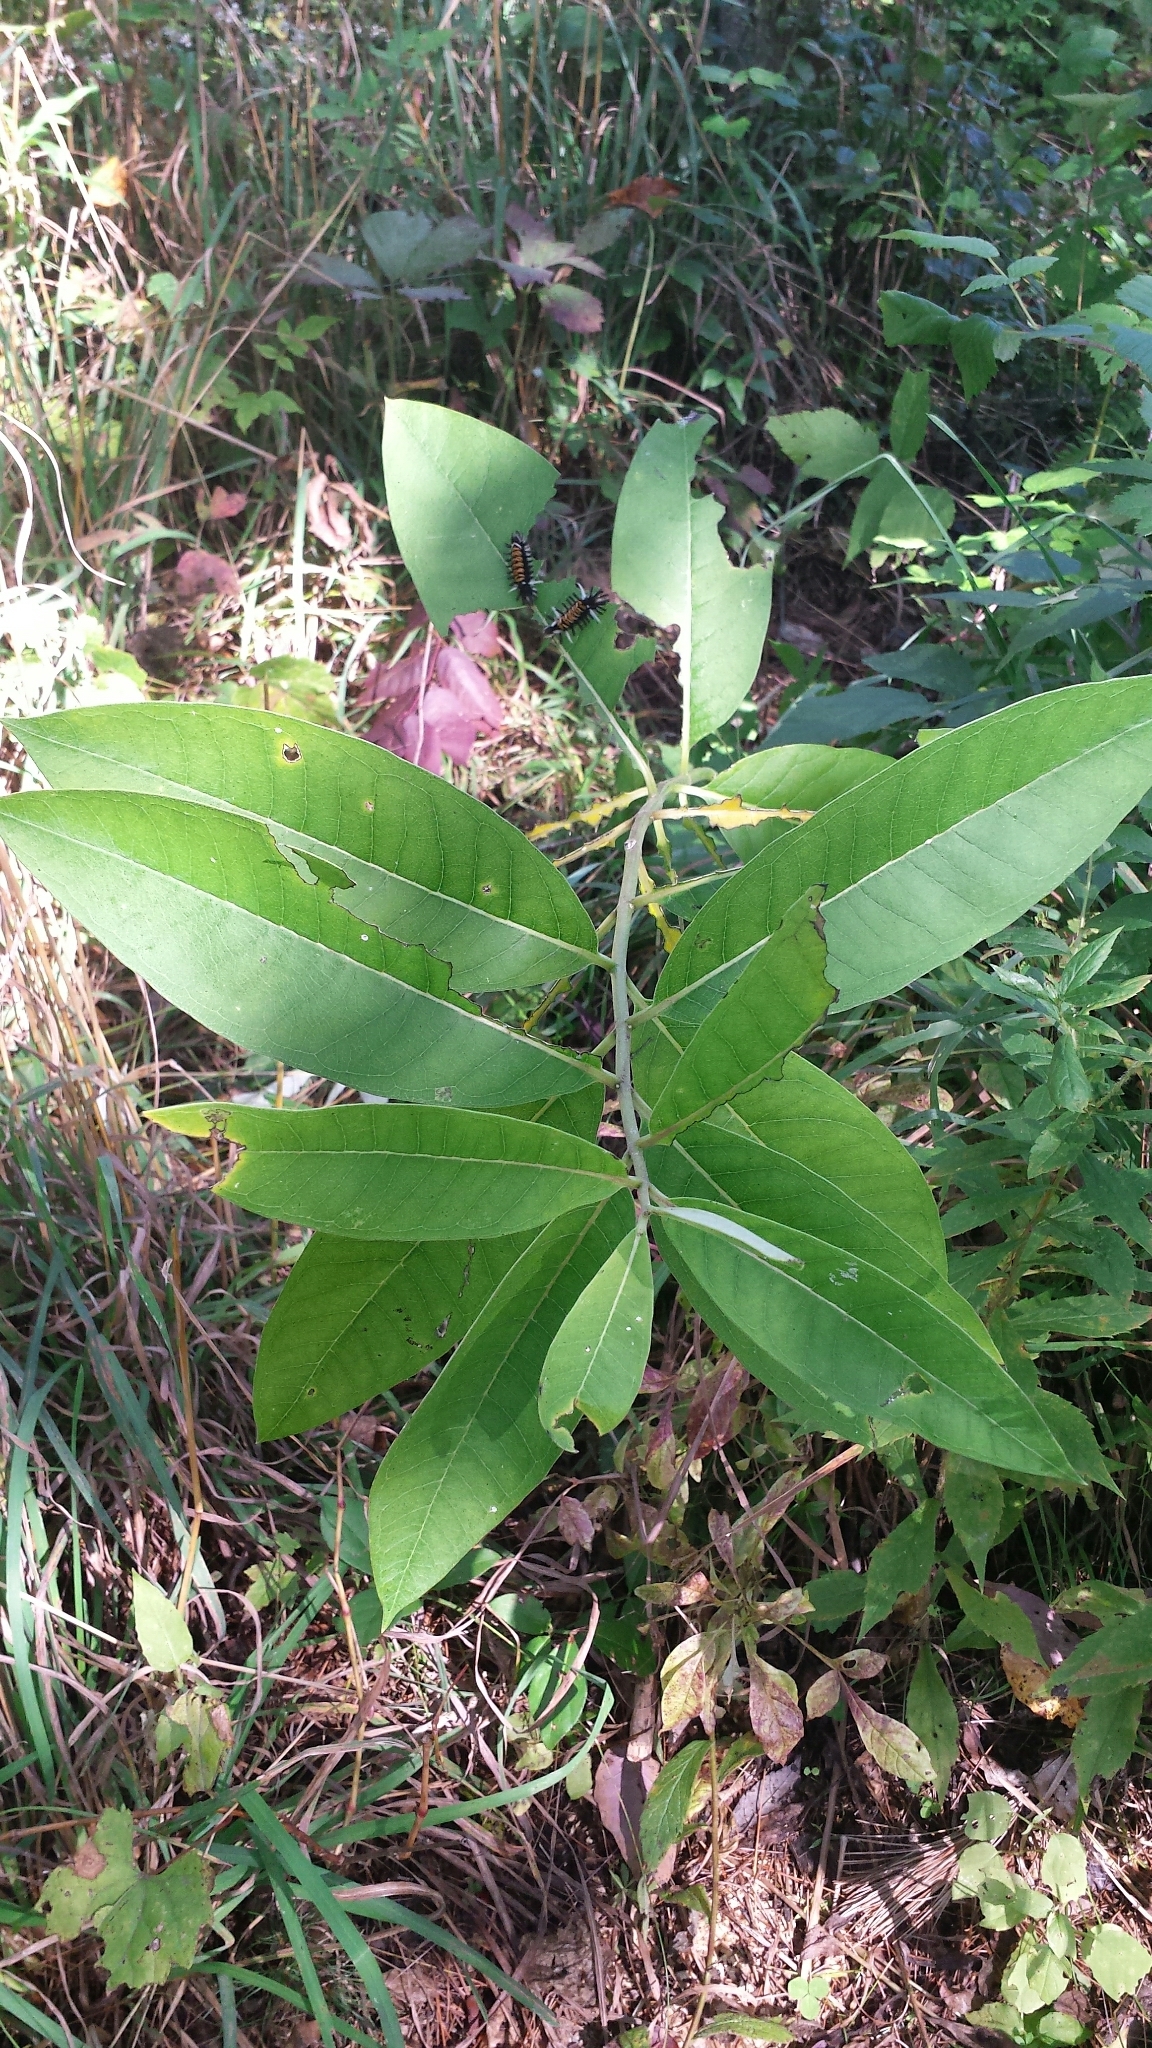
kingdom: Plantae
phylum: Tracheophyta
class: Magnoliopsida
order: Gentianales
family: Apocynaceae
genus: Asclepias
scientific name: Asclepias syriaca
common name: Common milkweed
